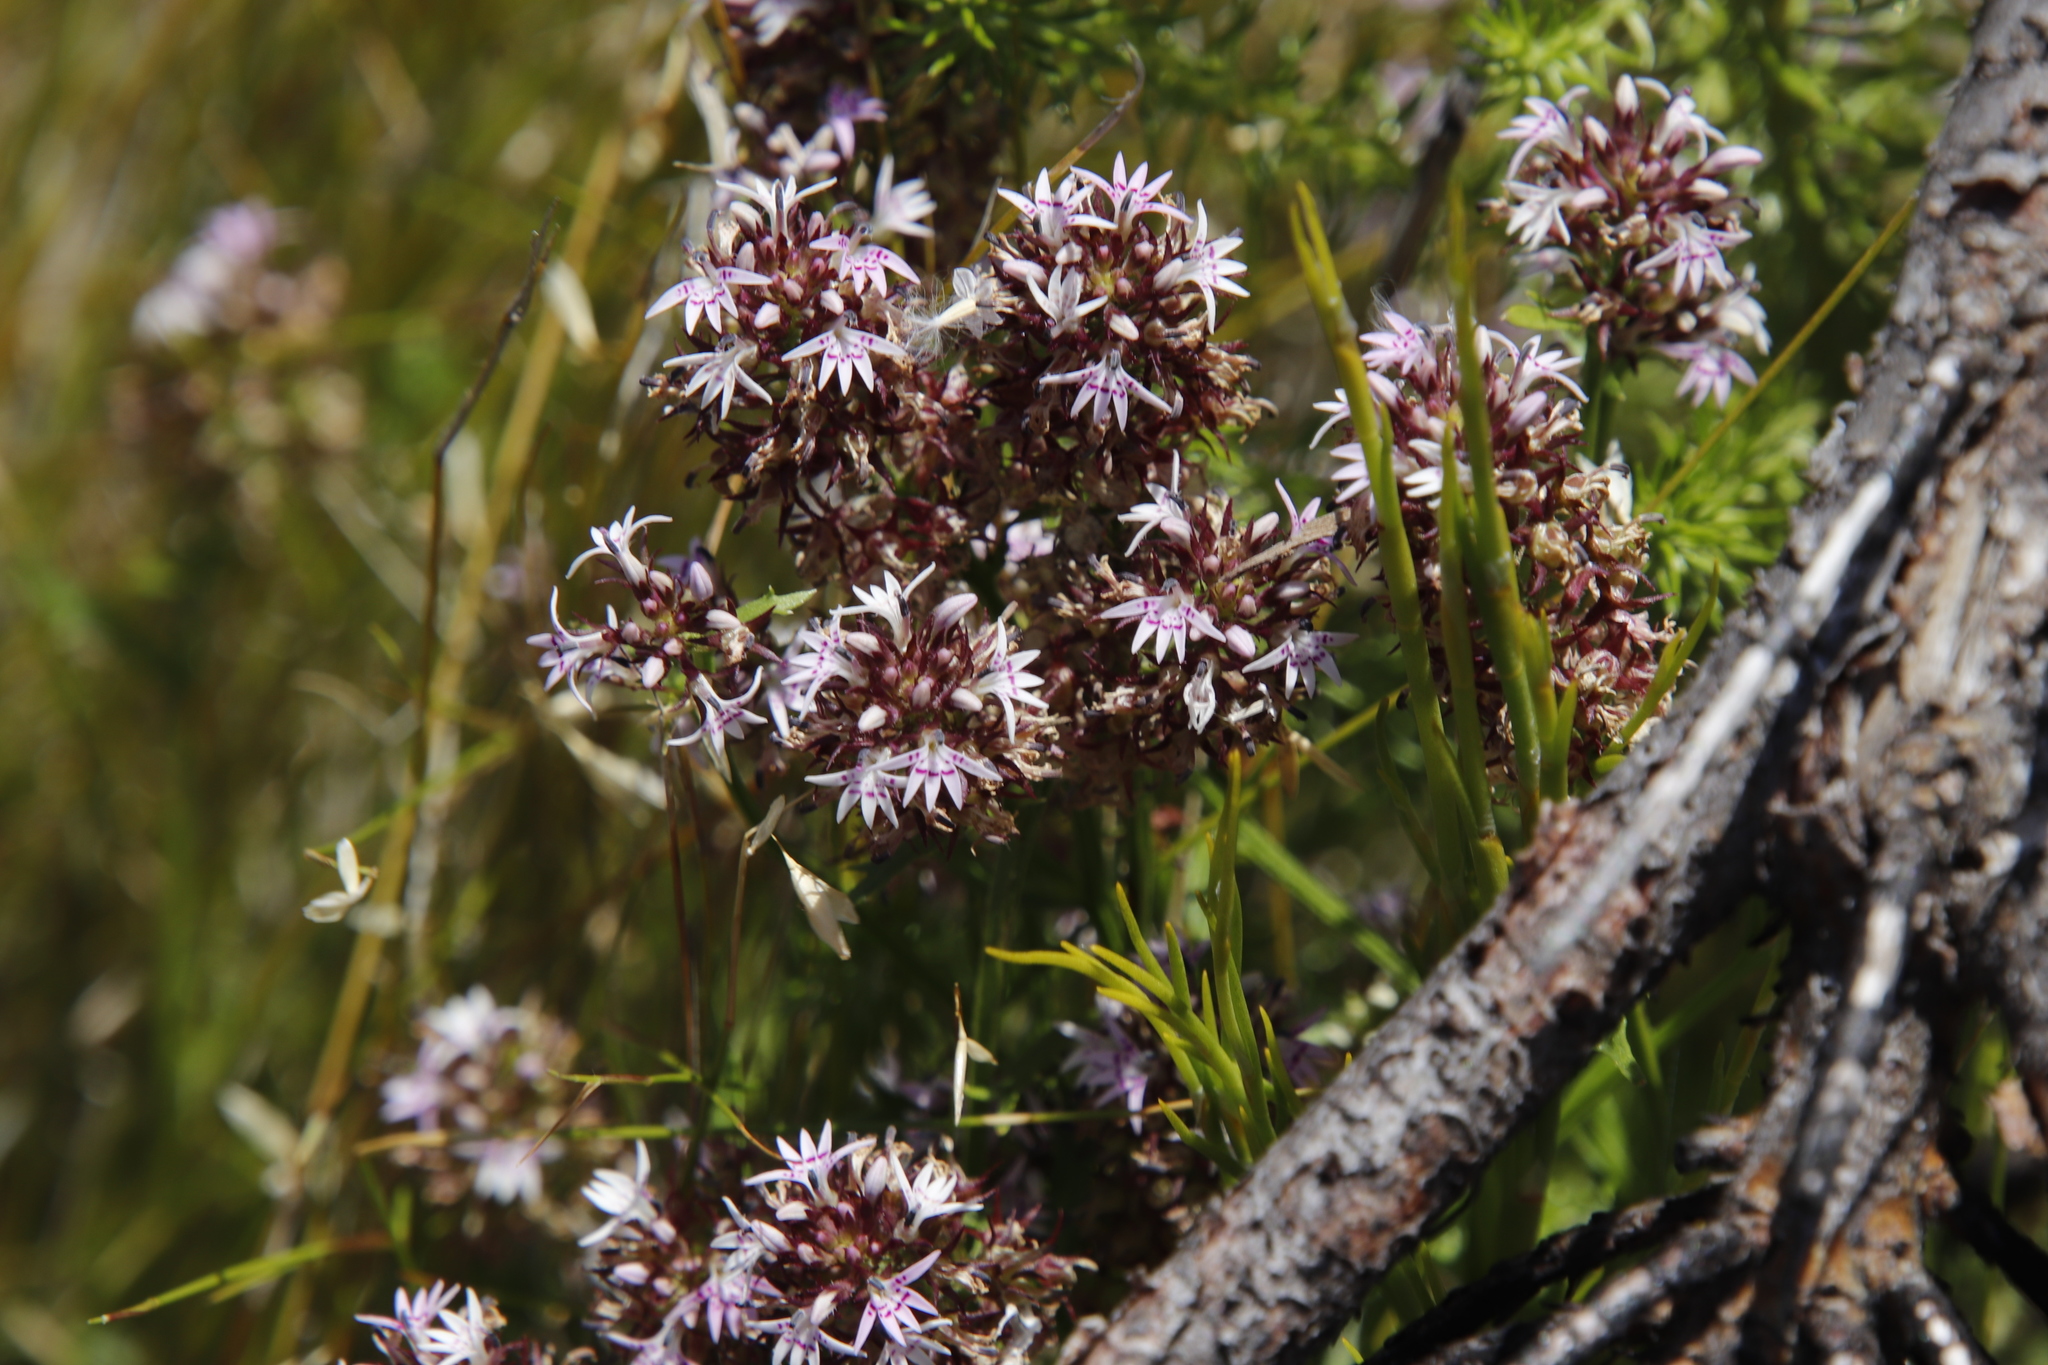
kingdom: Plantae
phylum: Tracheophyta
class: Magnoliopsida
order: Asterales
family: Campanulaceae
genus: Lobelia
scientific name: Lobelia jasionoides
